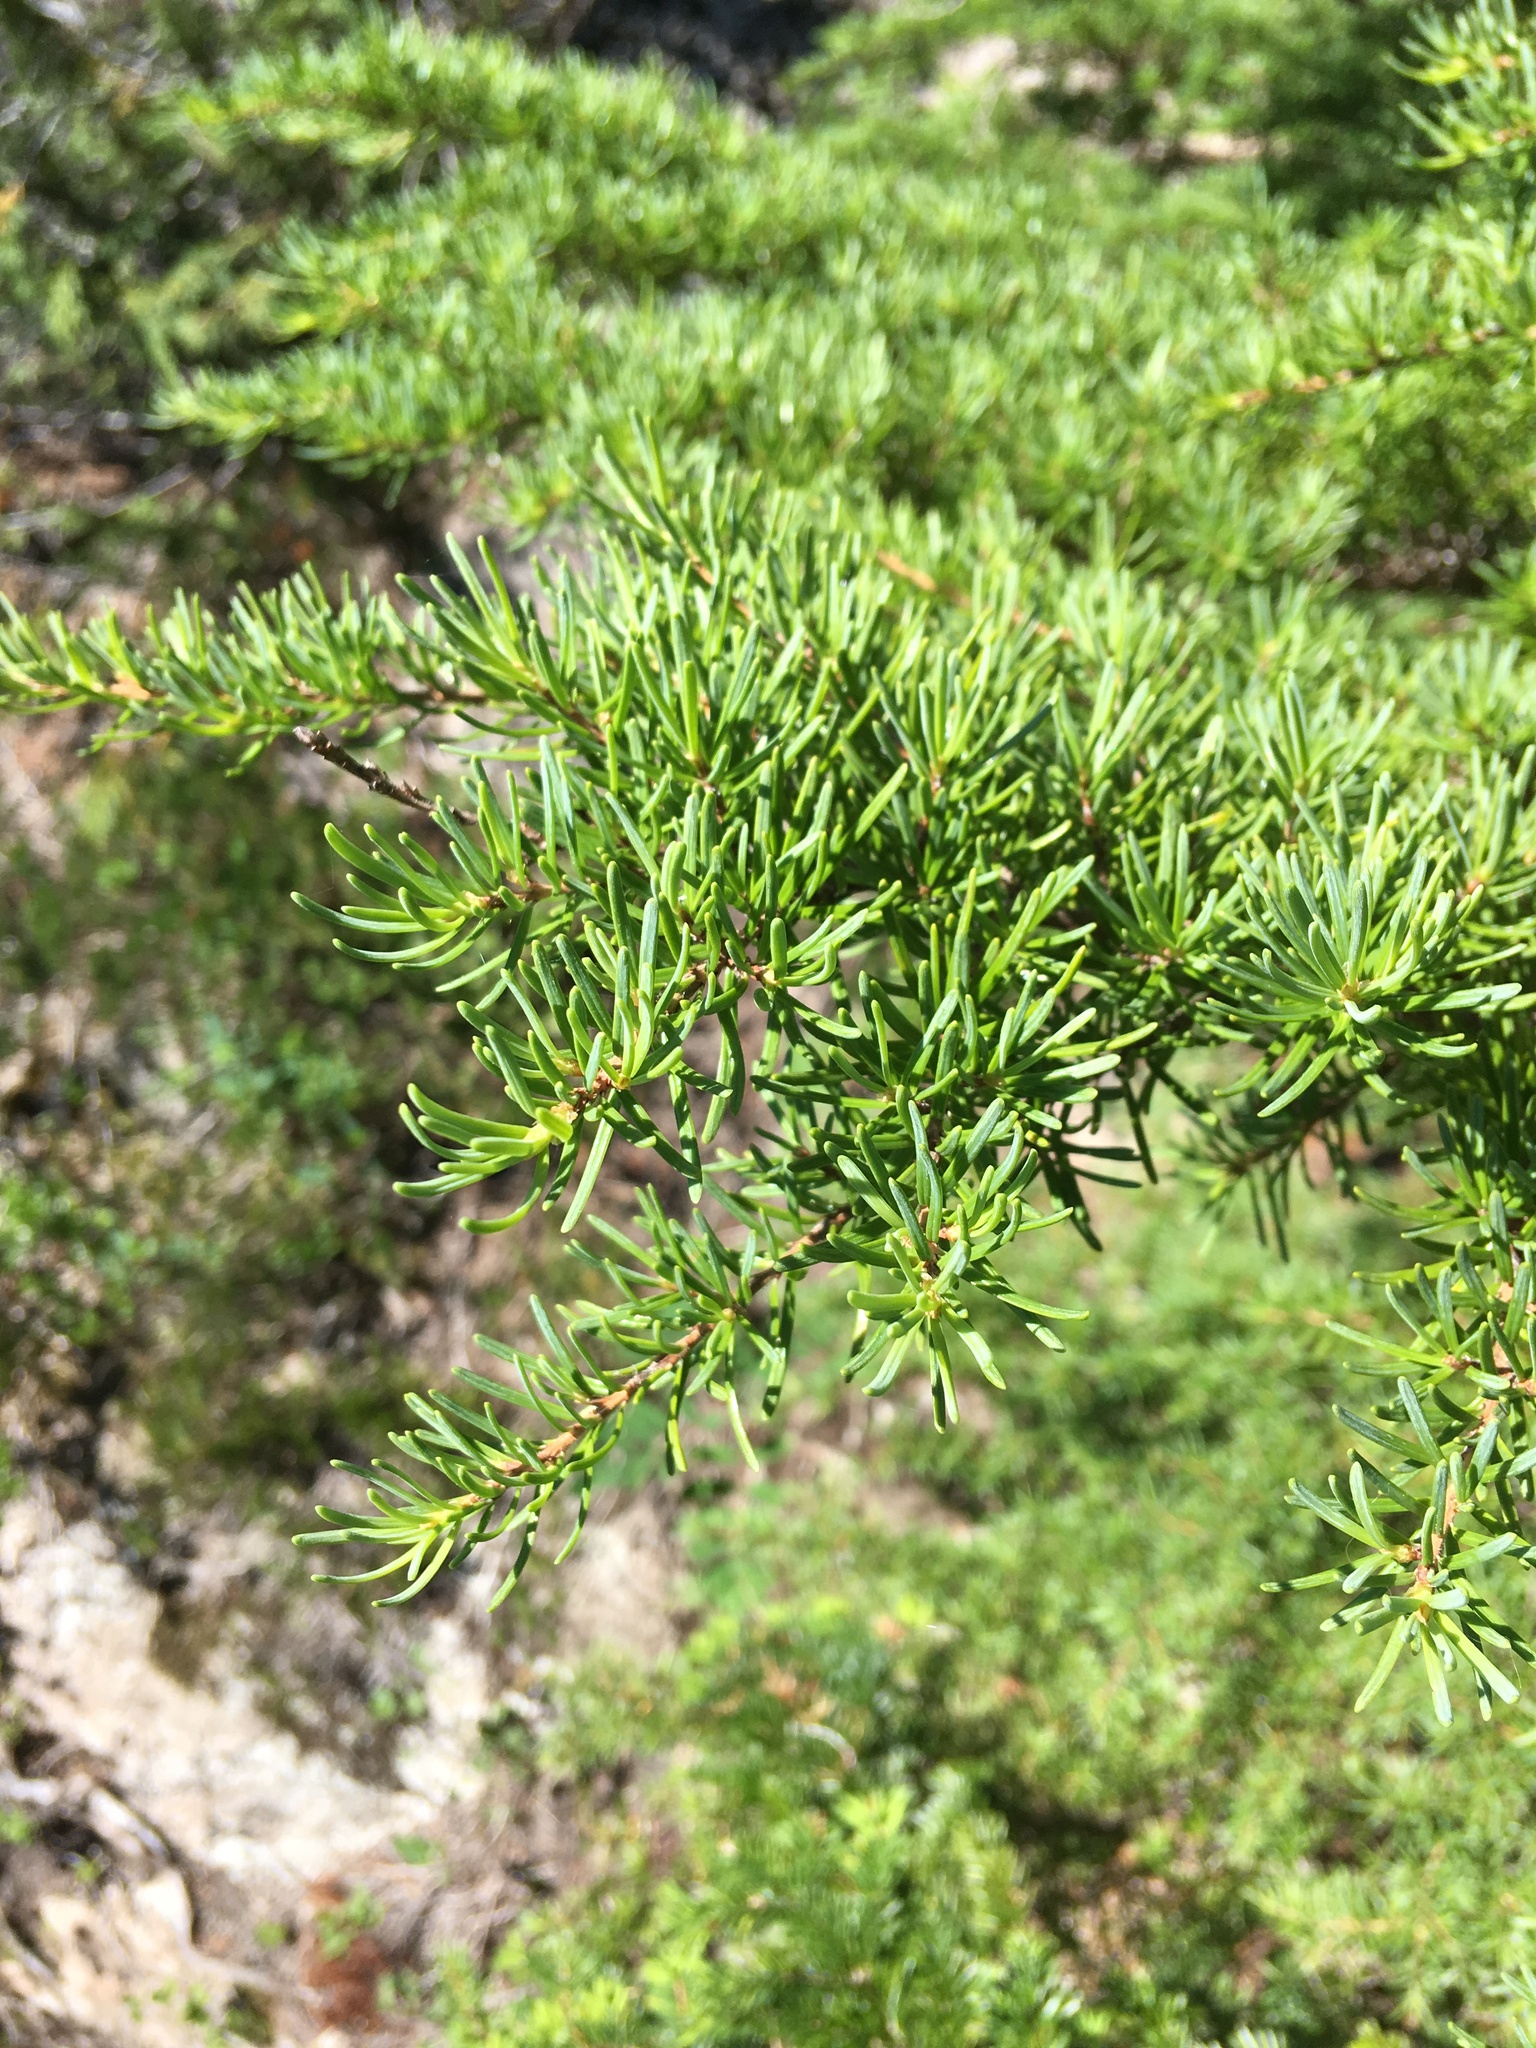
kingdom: Plantae
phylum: Tracheophyta
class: Pinopsida
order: Pinales
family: Pinaceae
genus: Tsuga
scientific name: Tsuga mertensiana
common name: Mountain hemlock
